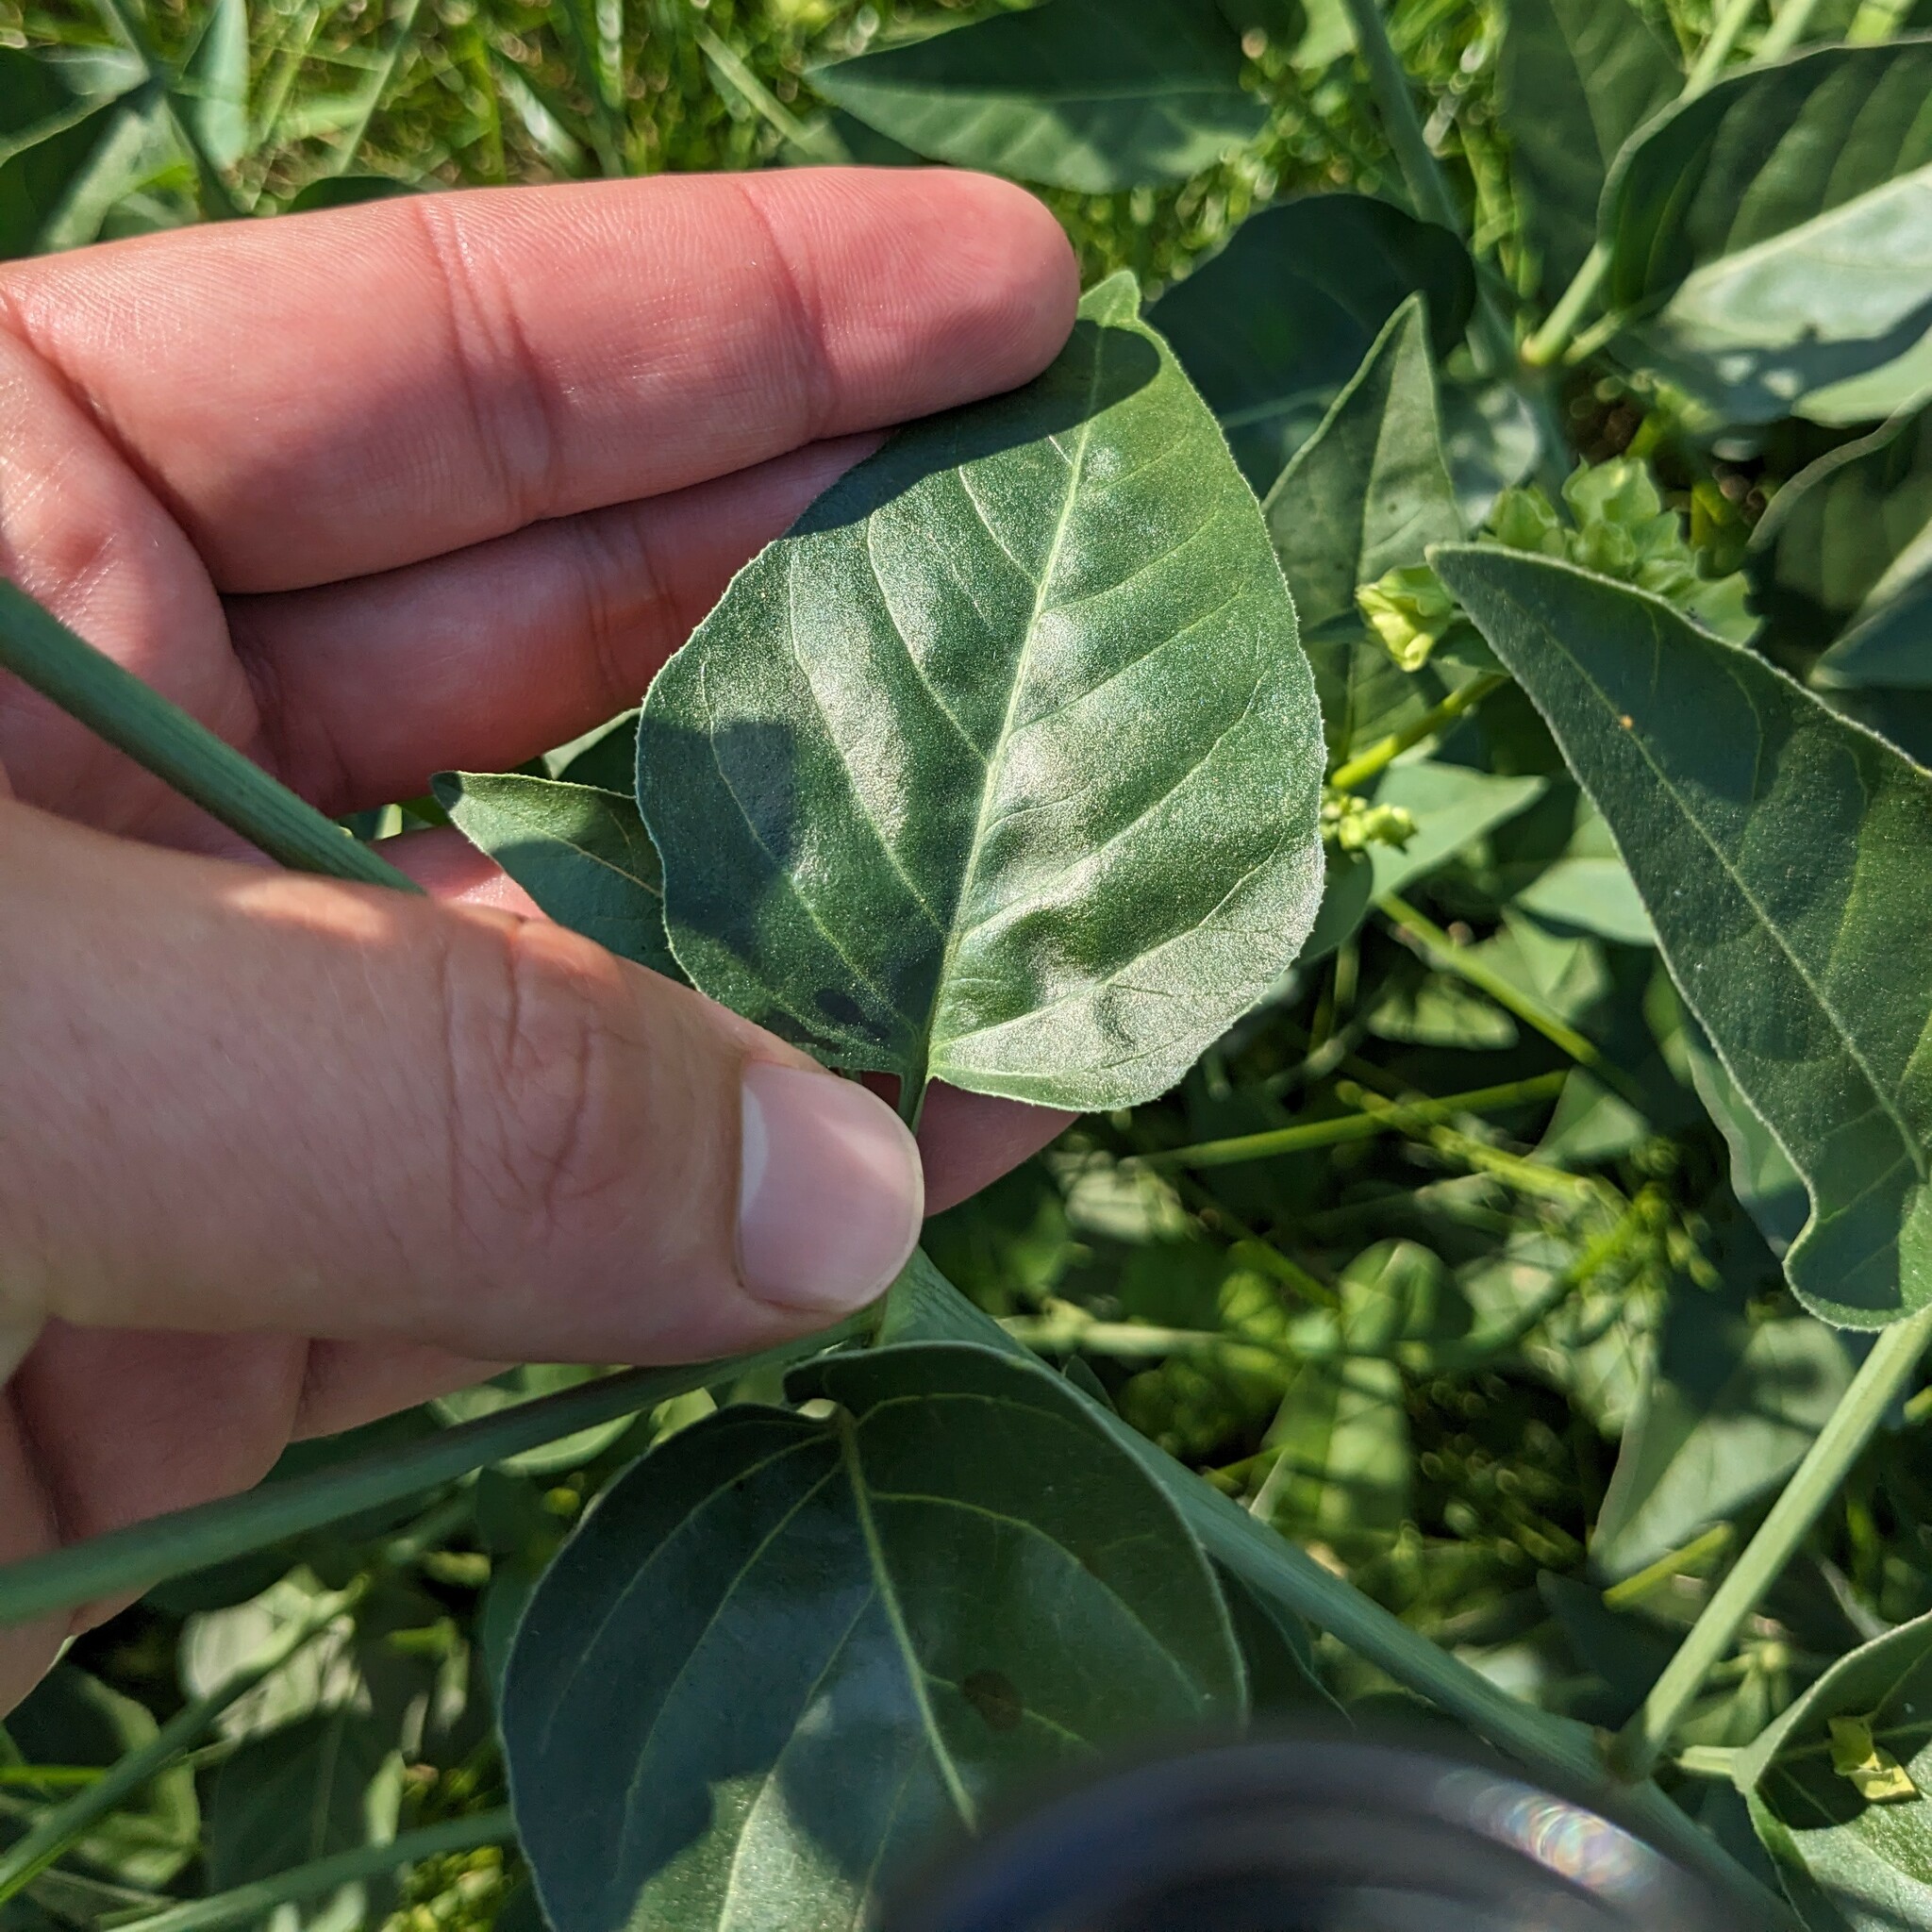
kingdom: Plantae
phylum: Tracheophyta
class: Magnoliopsida
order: Caryophyllales
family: Nyctaginaceae
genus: Mirabilis
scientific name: Mirabilis nyctaginea
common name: Umbrella wort
